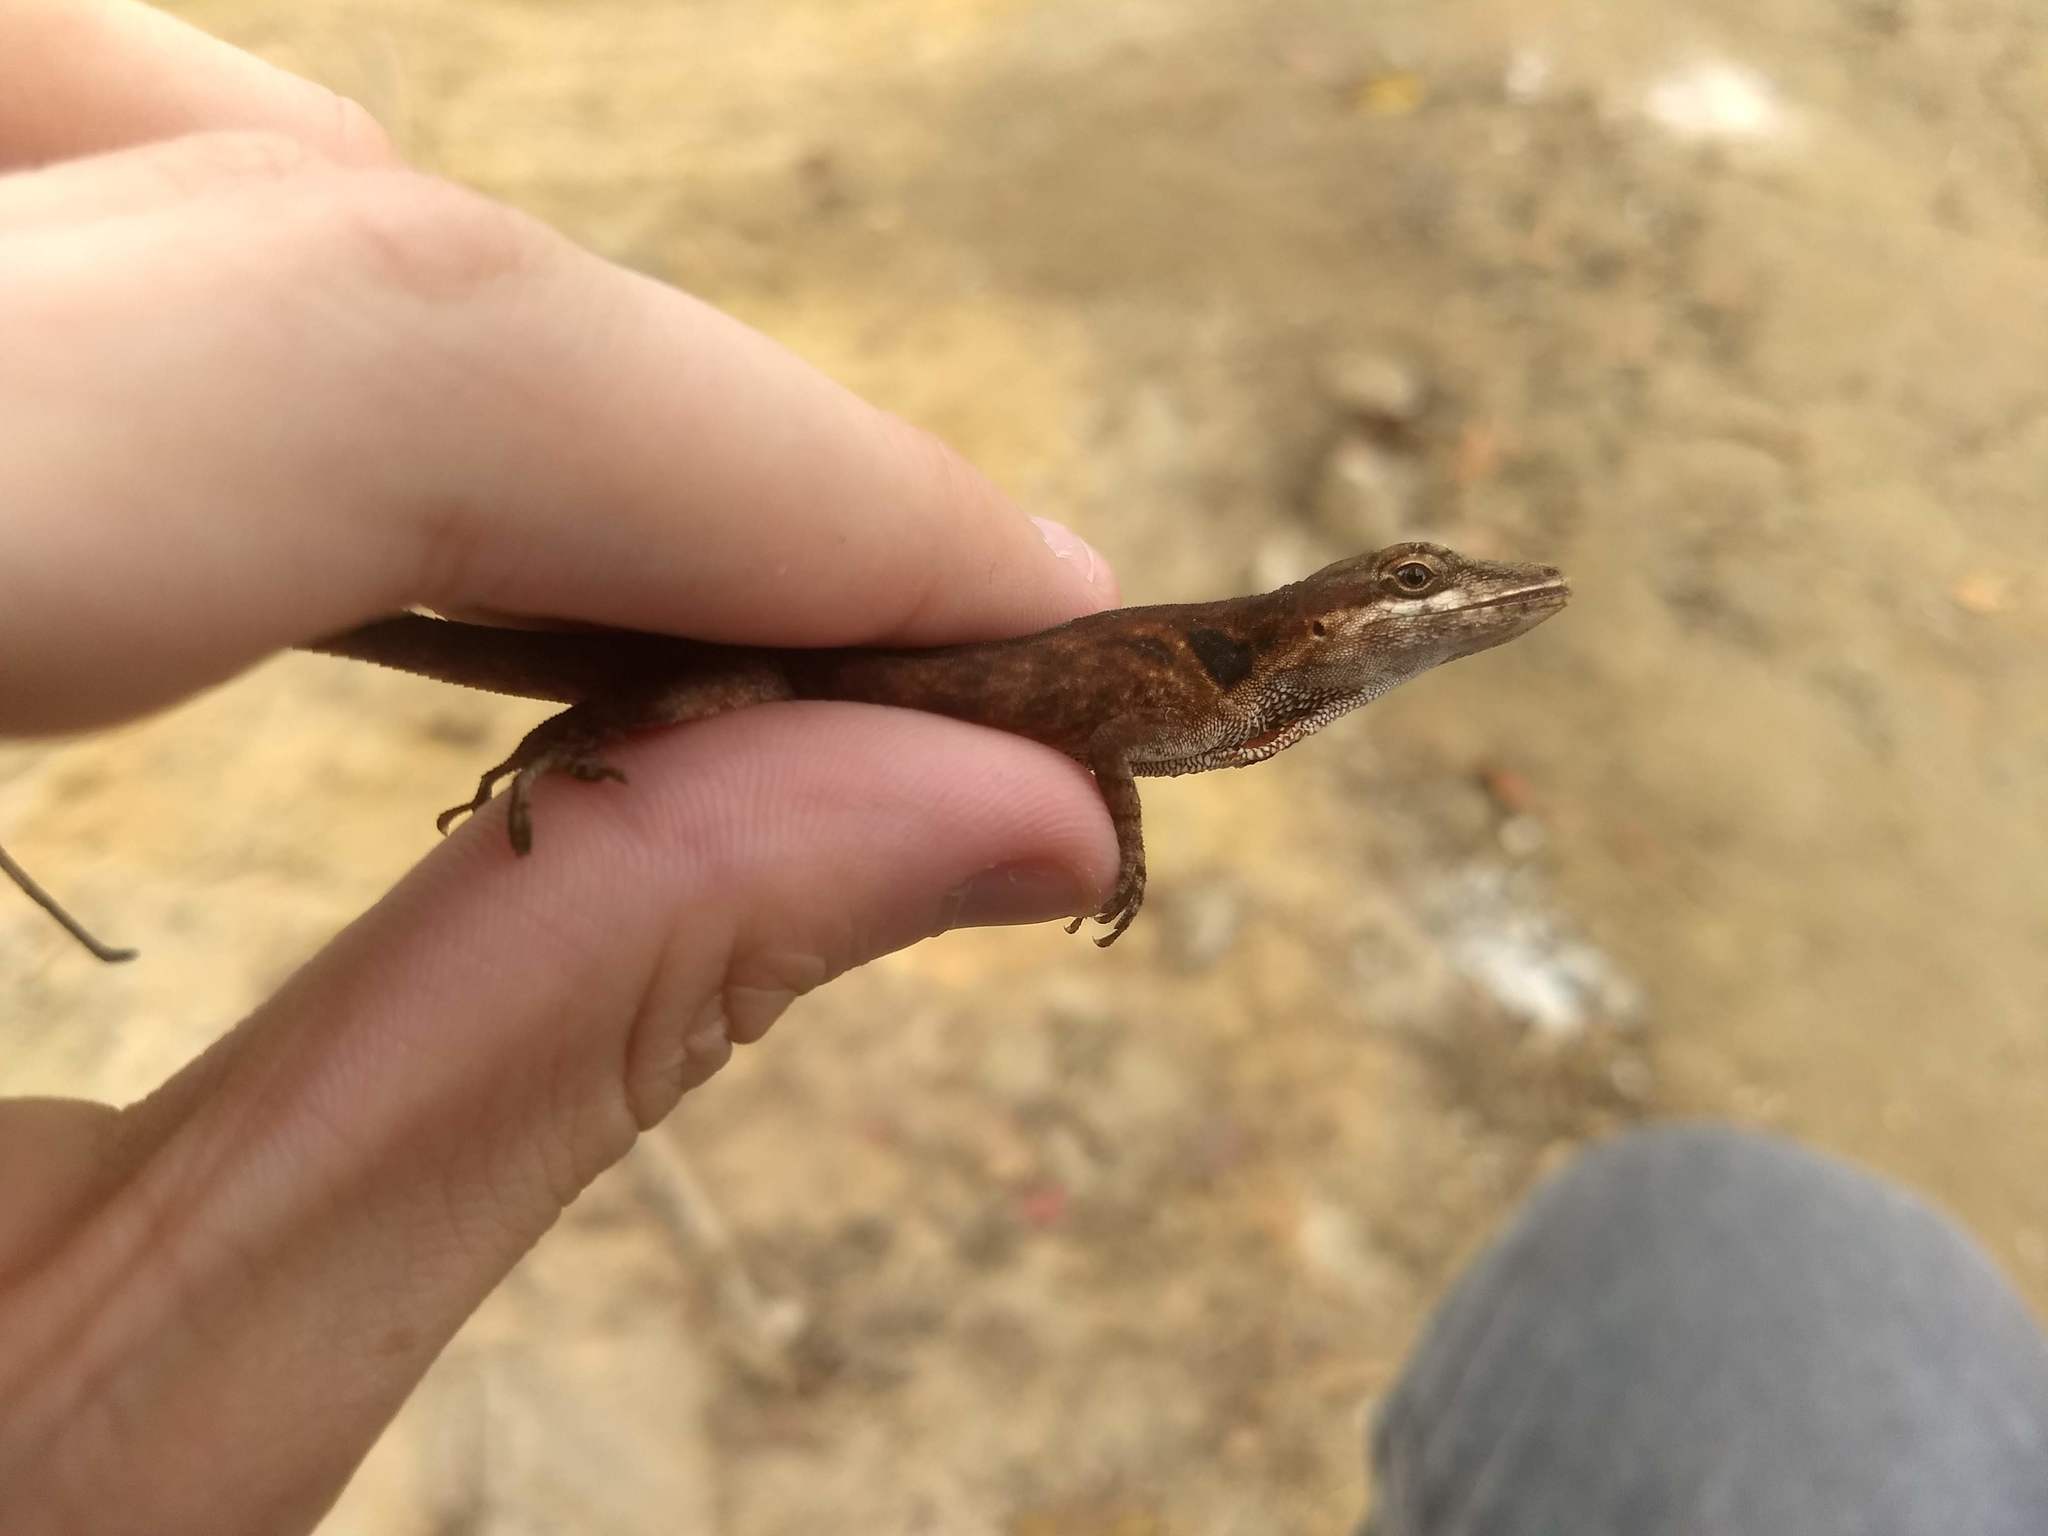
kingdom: Animalia
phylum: Chordata
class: Squamata
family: Dactyloidae
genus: Anolis
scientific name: Anolis mariarum
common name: Blemished anole
